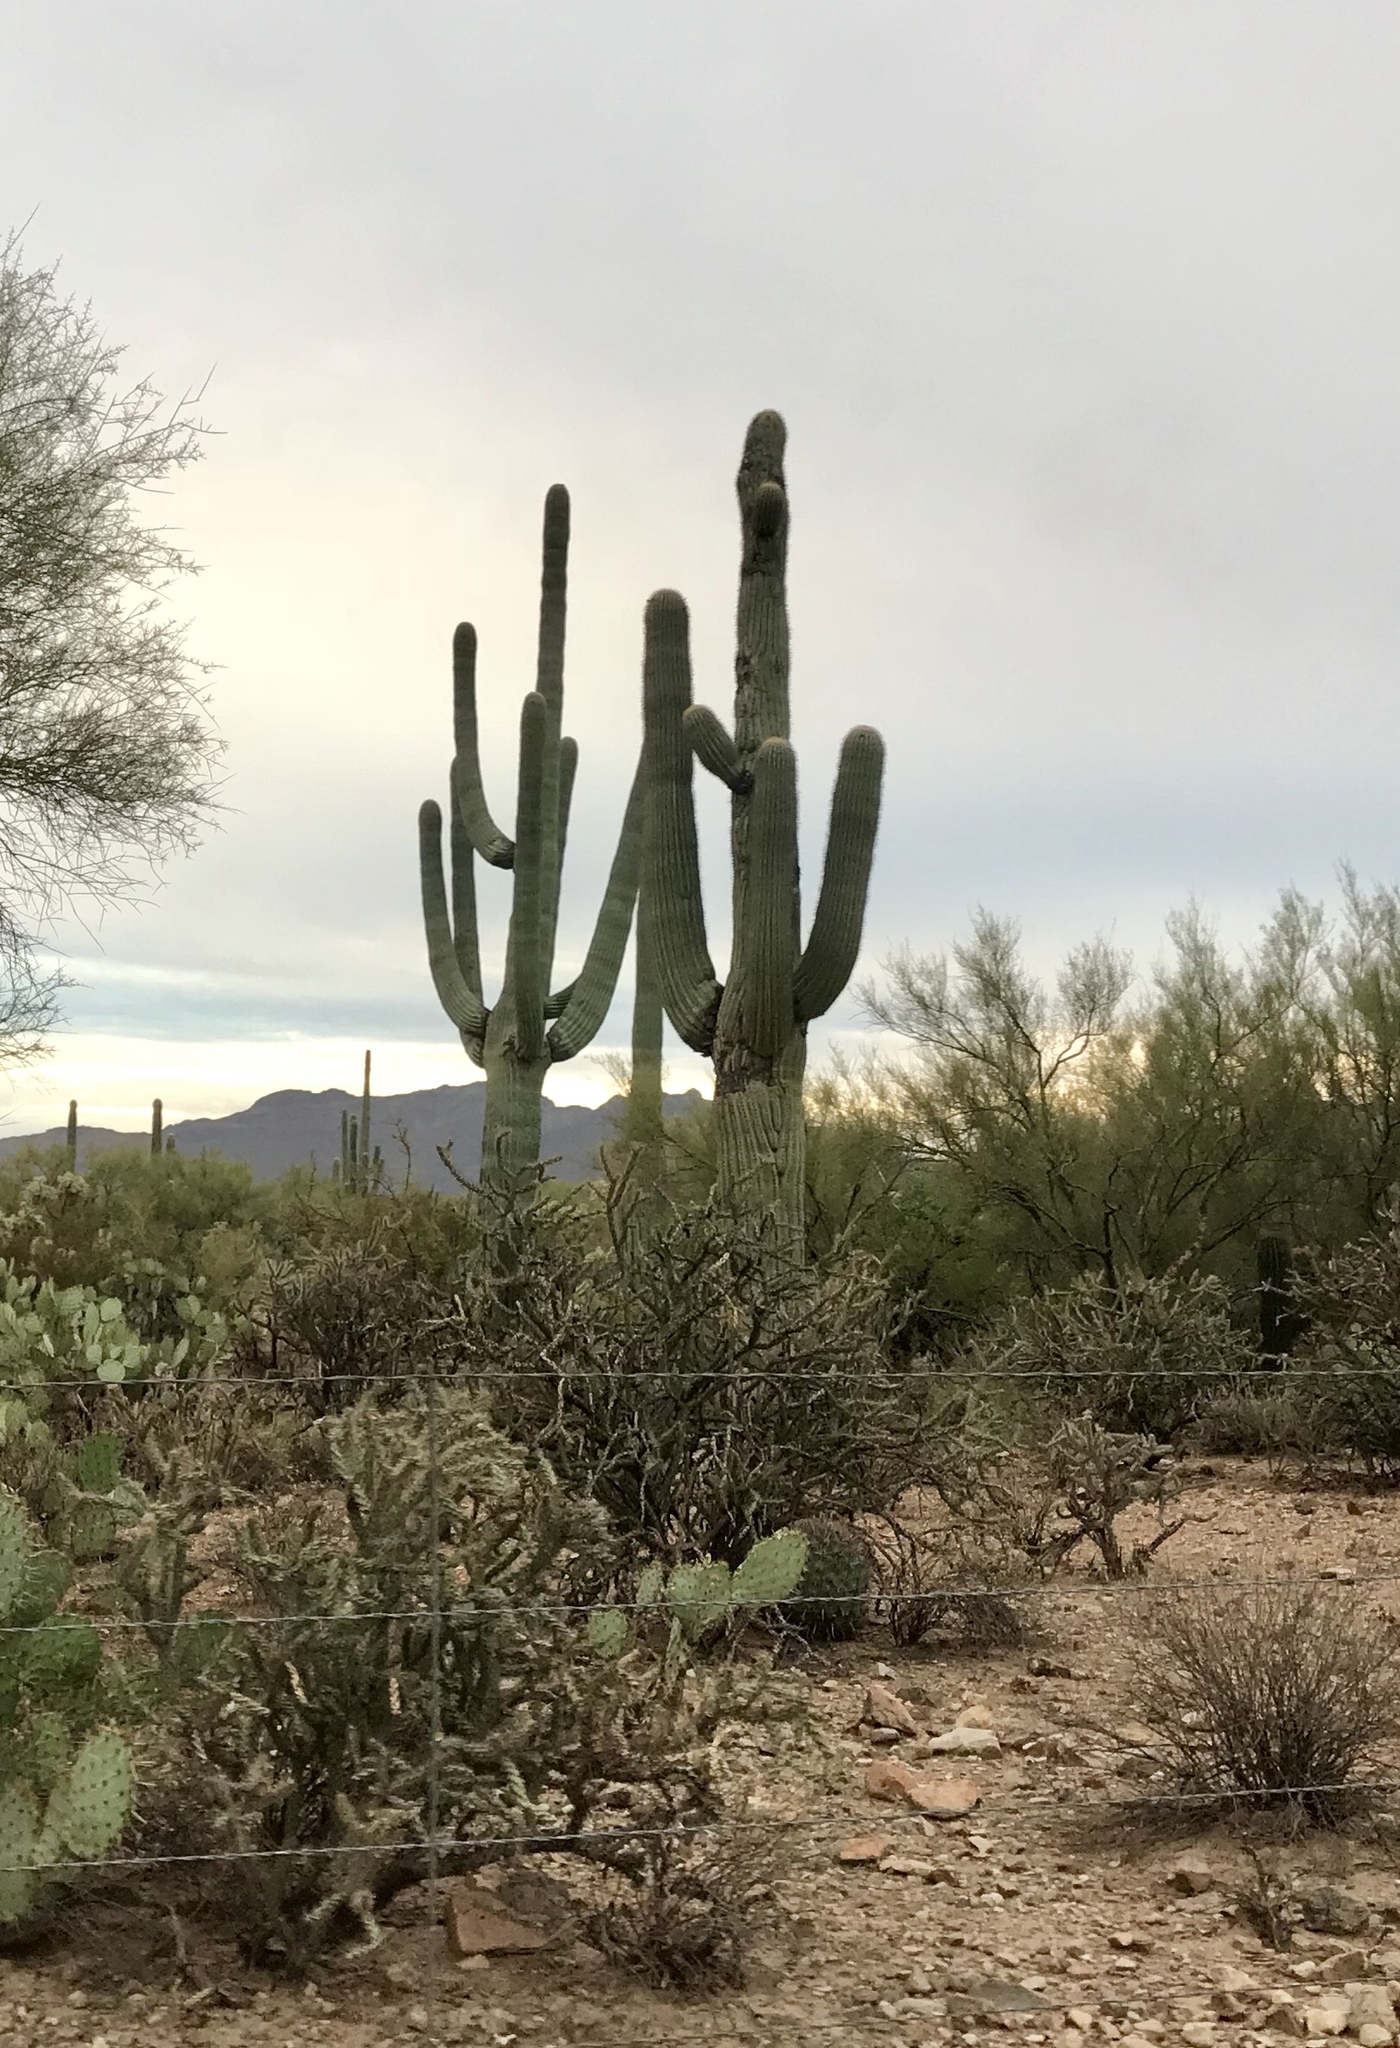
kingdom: Plantae
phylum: Tracheophyta
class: Magnoliopsida
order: Caryophyllales
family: Cactaceae
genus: Carnegiea
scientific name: Carnegiea gigantea
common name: Saguaro
